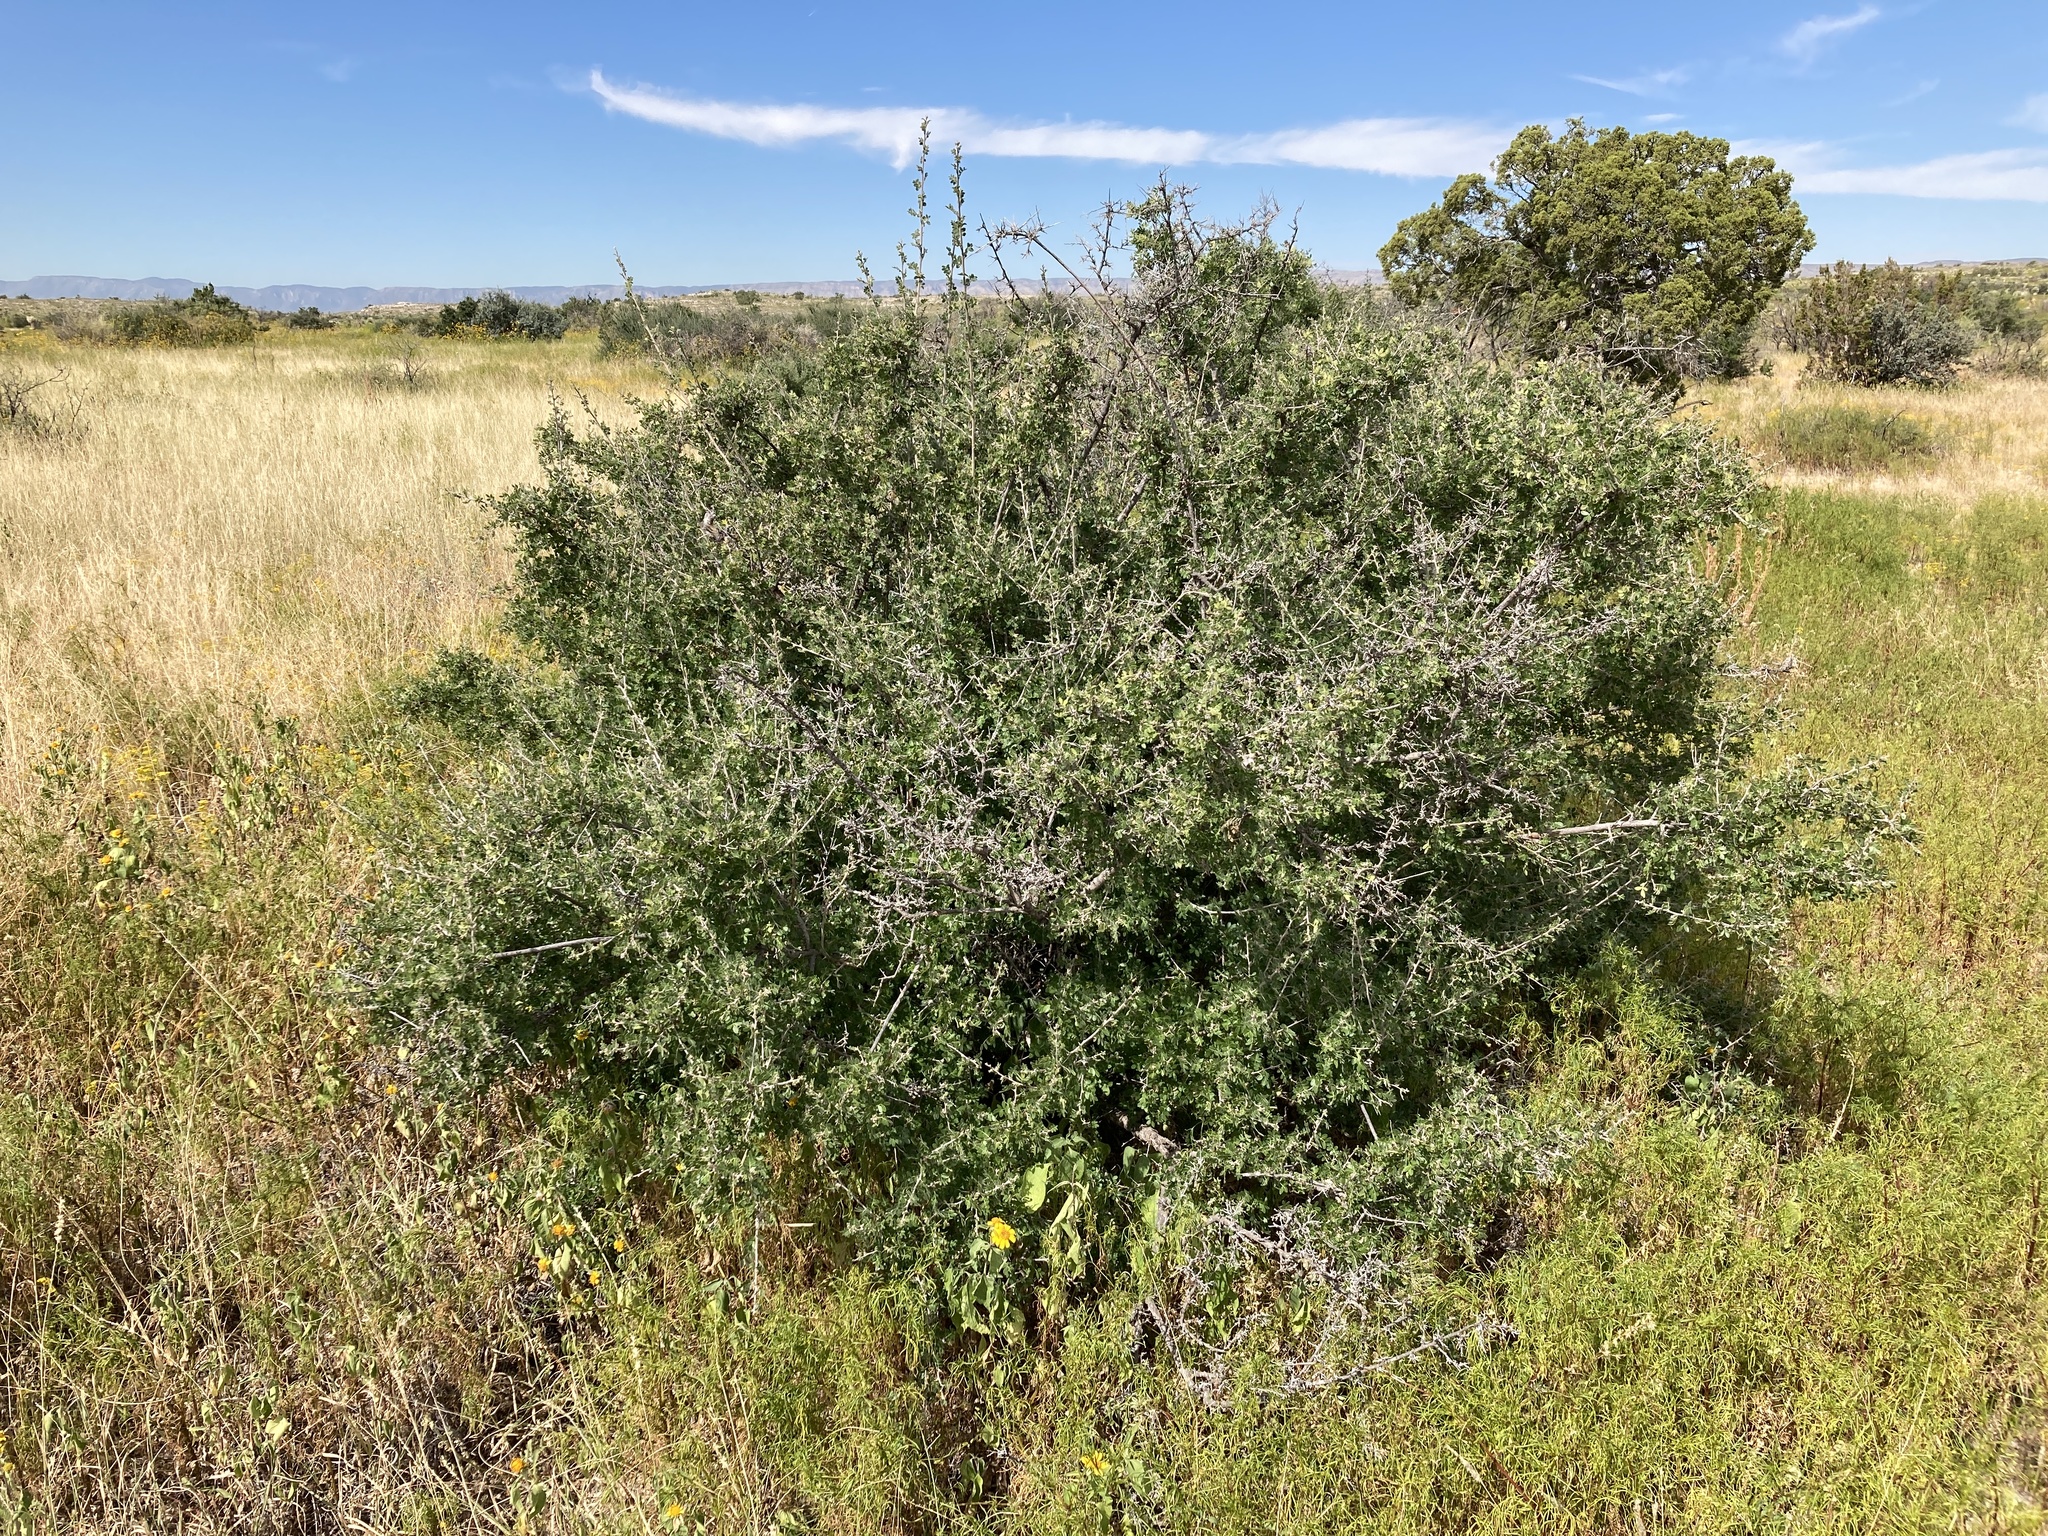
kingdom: Plantae
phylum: Tracheophyta
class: Magnoliopsida
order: Sapindales
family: Anacardiaceae
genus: Rhus
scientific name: Rhus microphylla
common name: Desert sumac
